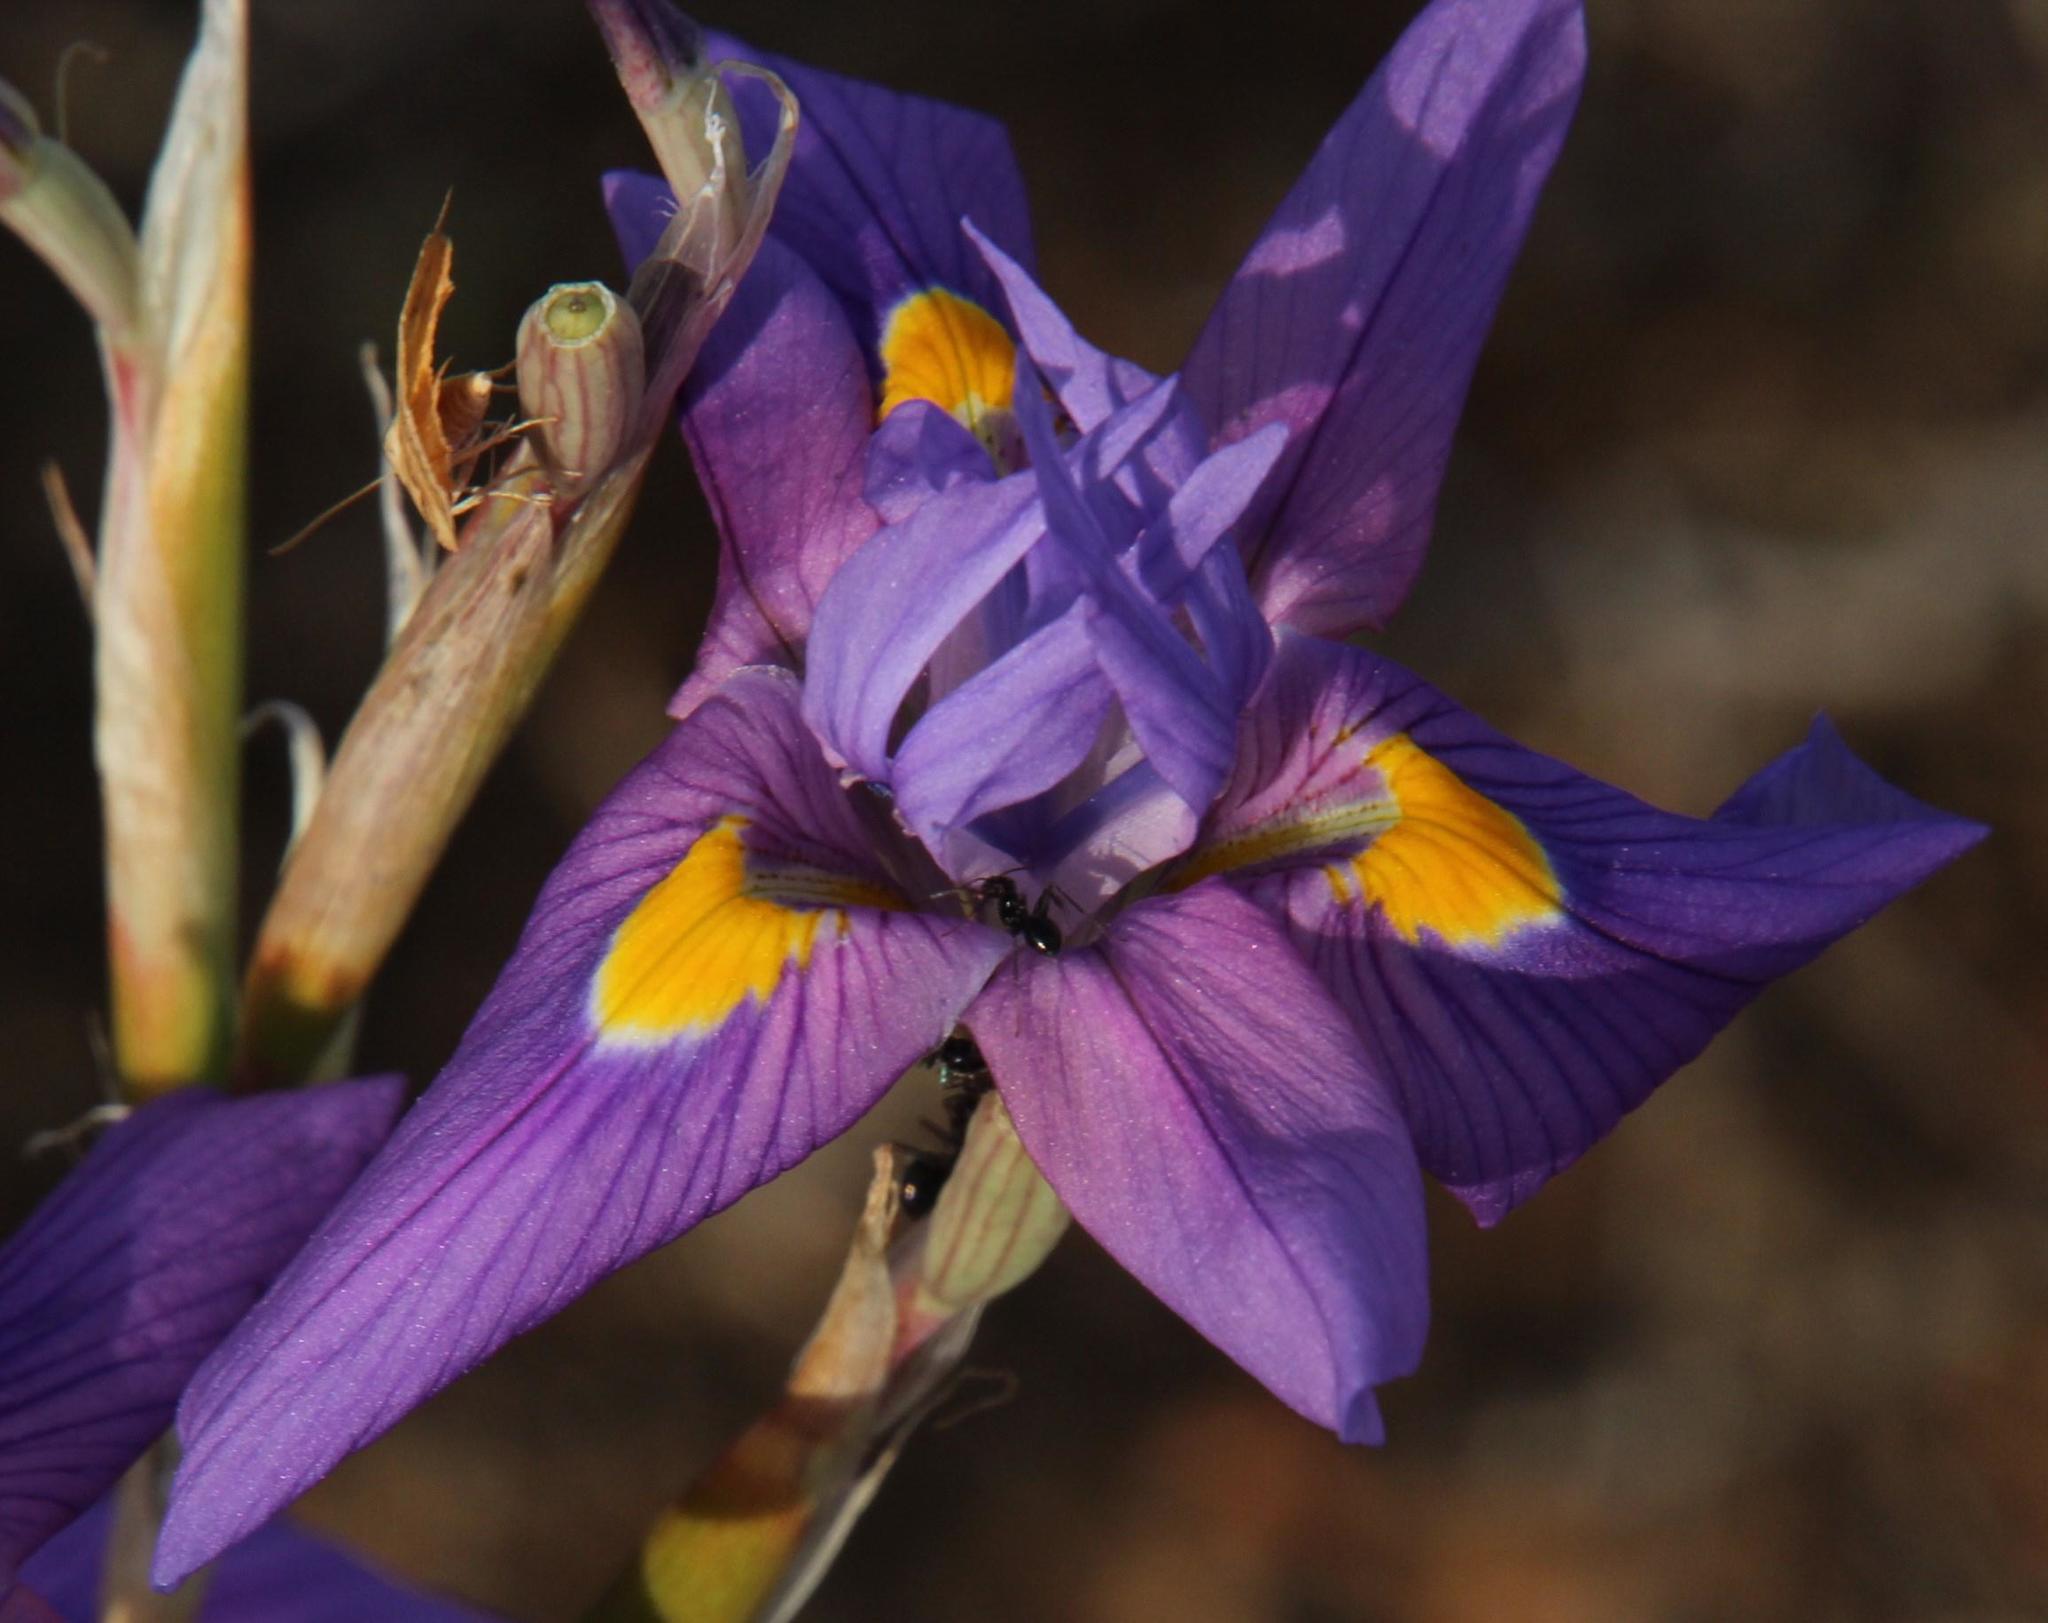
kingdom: Plantae
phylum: Tracheophyta
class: Liliopsida
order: Asparagales
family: Iridaceae
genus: Moraea
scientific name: Moraea polystachya
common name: Blue-tulip
